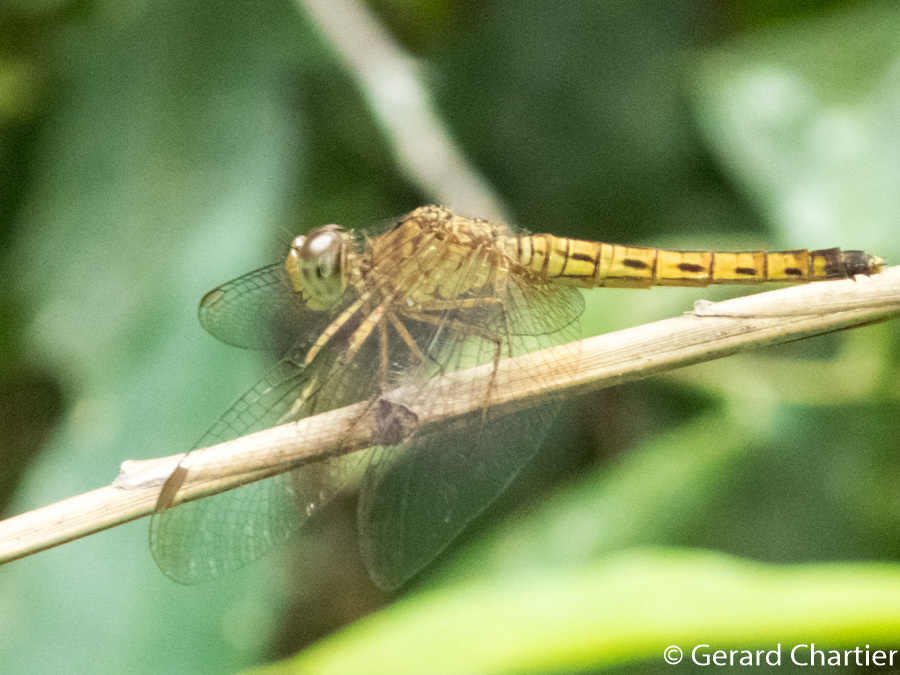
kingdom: Animalia
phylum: Arthropoda
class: Insecta
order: Odonata
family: Libellulidae
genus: Neurothemis
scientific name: Neurothemis fluctuans
